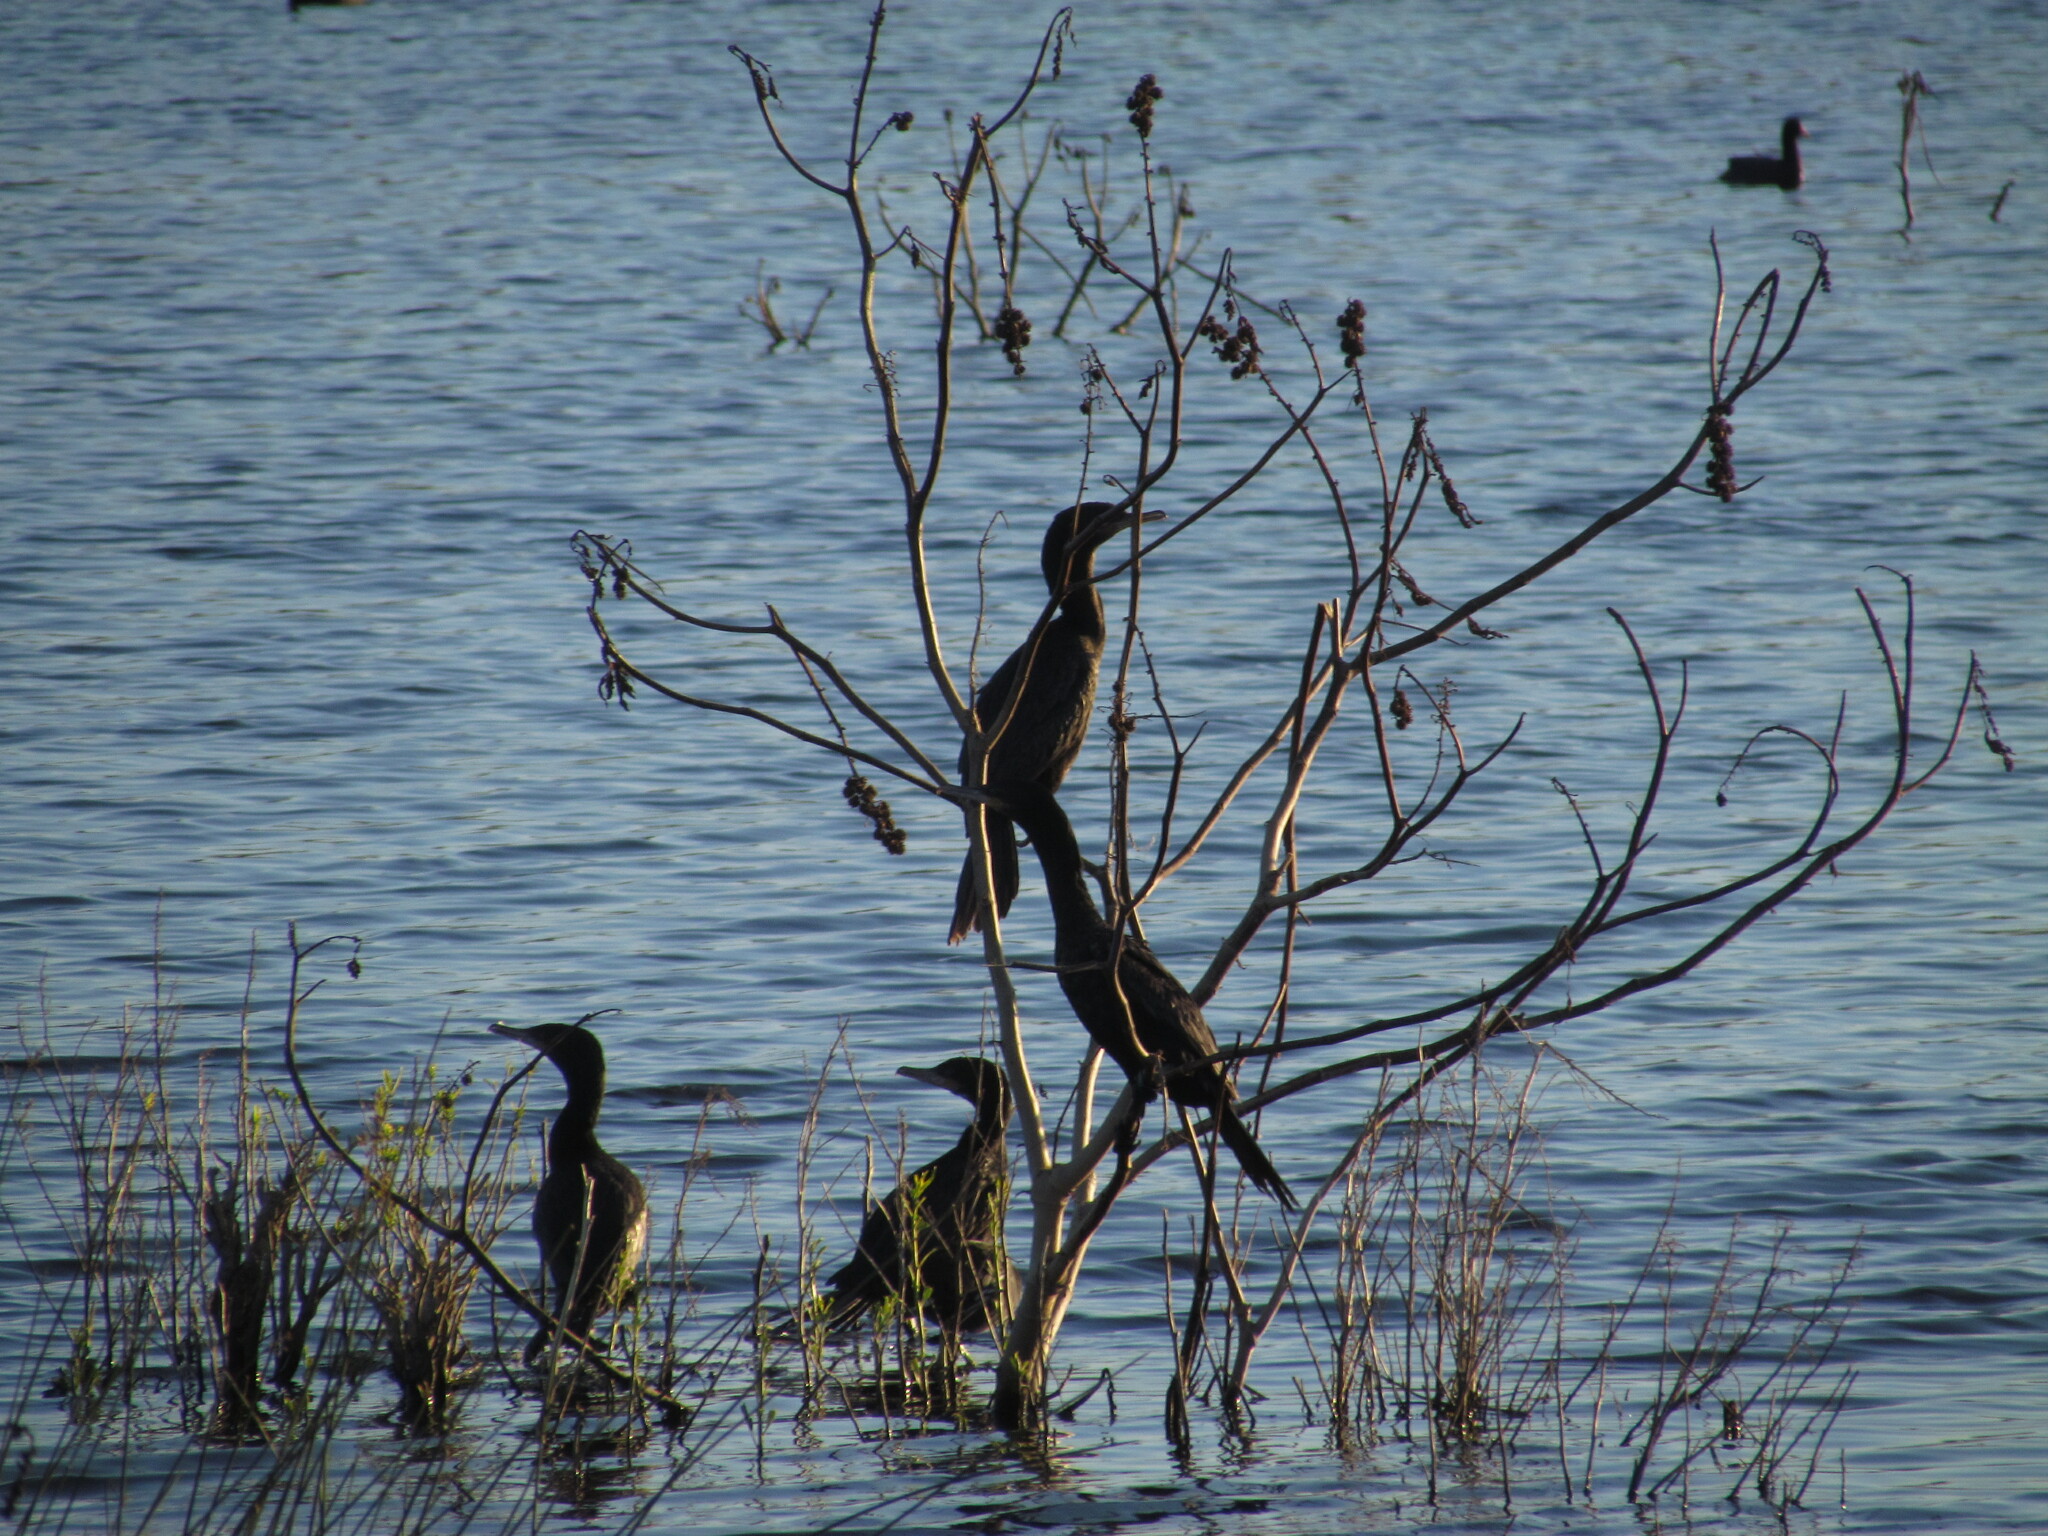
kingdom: Animalia
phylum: Chordata
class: Aves
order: Suliformes
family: Phalacrocoracidae
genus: Phalacrocorax
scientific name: Phalacrocorax brasilianus
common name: Neotropic cormorant
